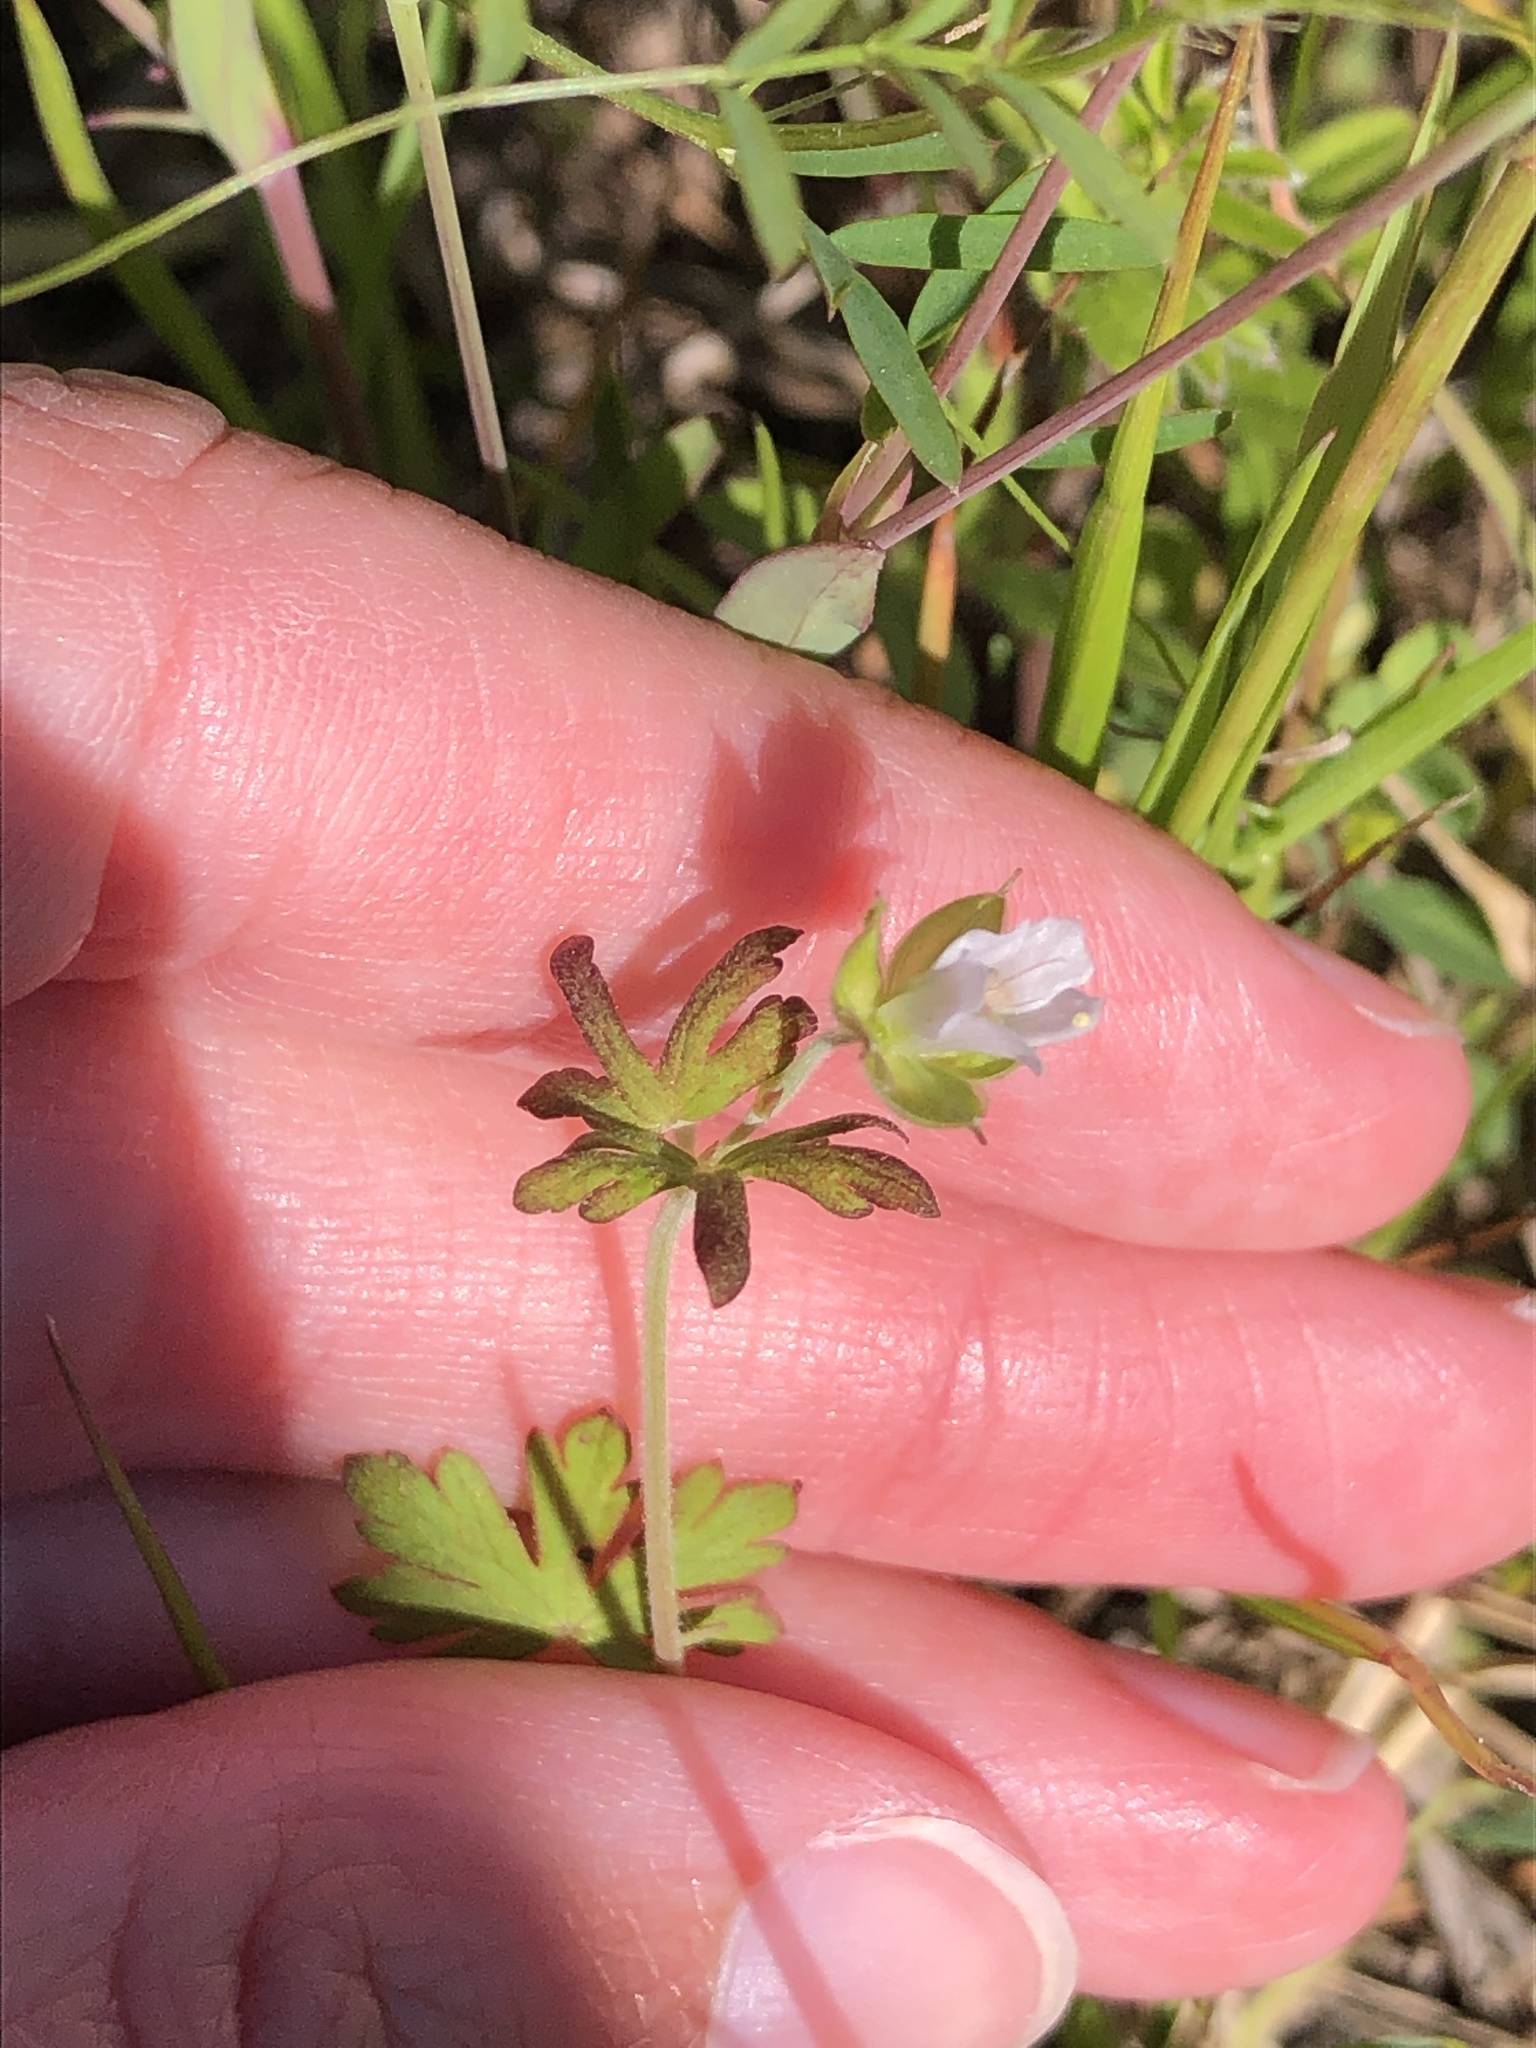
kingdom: Plantae
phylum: Tracheophyta
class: Magnoliopsida
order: Geraniales
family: Geraniaceae
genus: Geranium
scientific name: Geranium carolinianum
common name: Carolina crane's-bill
